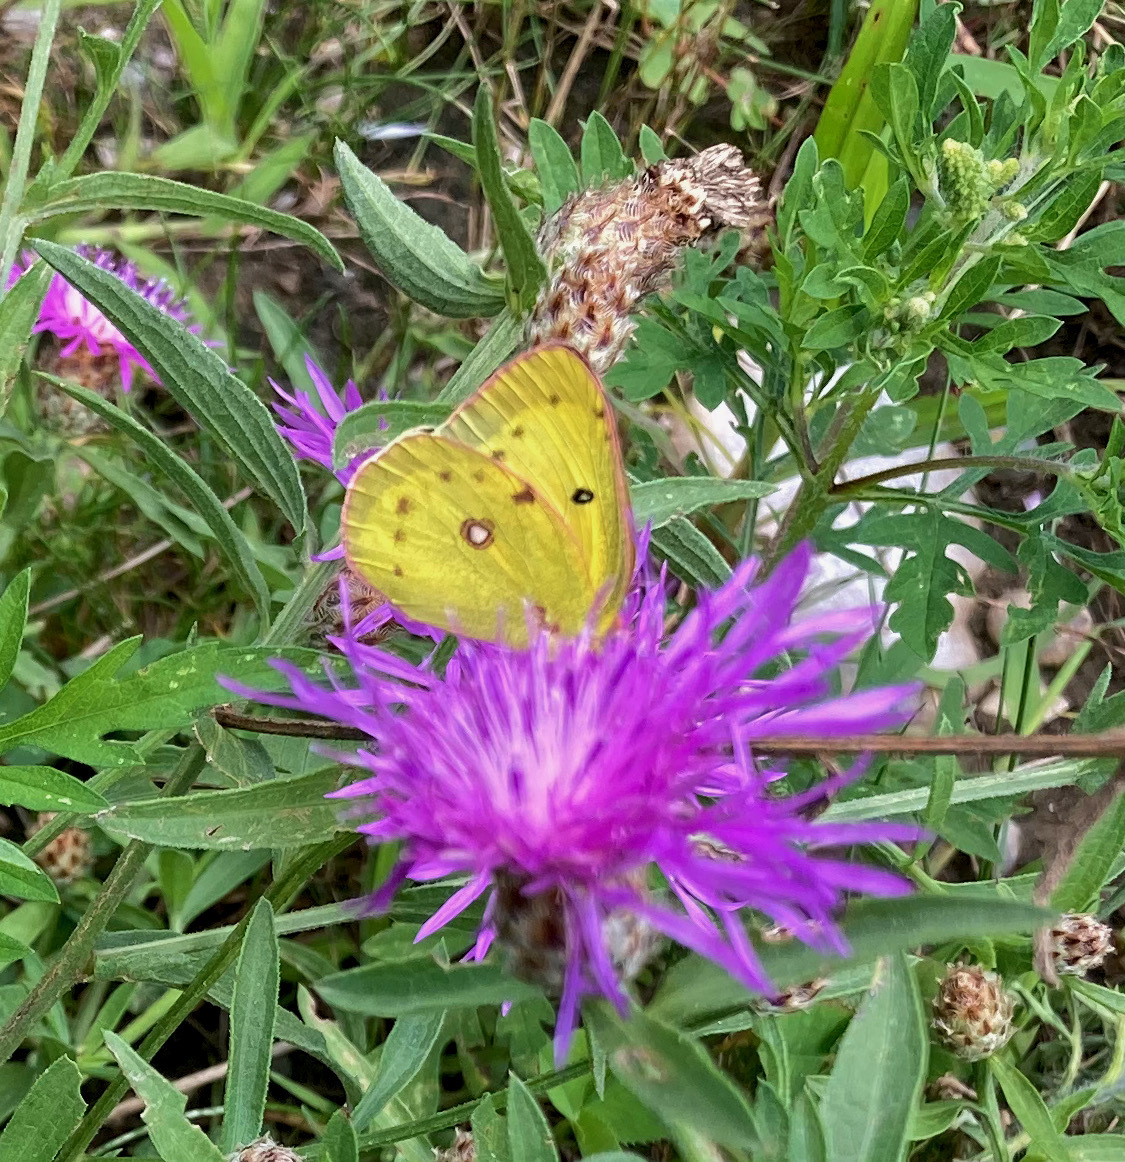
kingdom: Animalia
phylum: Arthropoda
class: Insecta
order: Lepidoptera
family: Pieridae
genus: Colias
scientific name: Colias philodice
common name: Clouded sulphur
